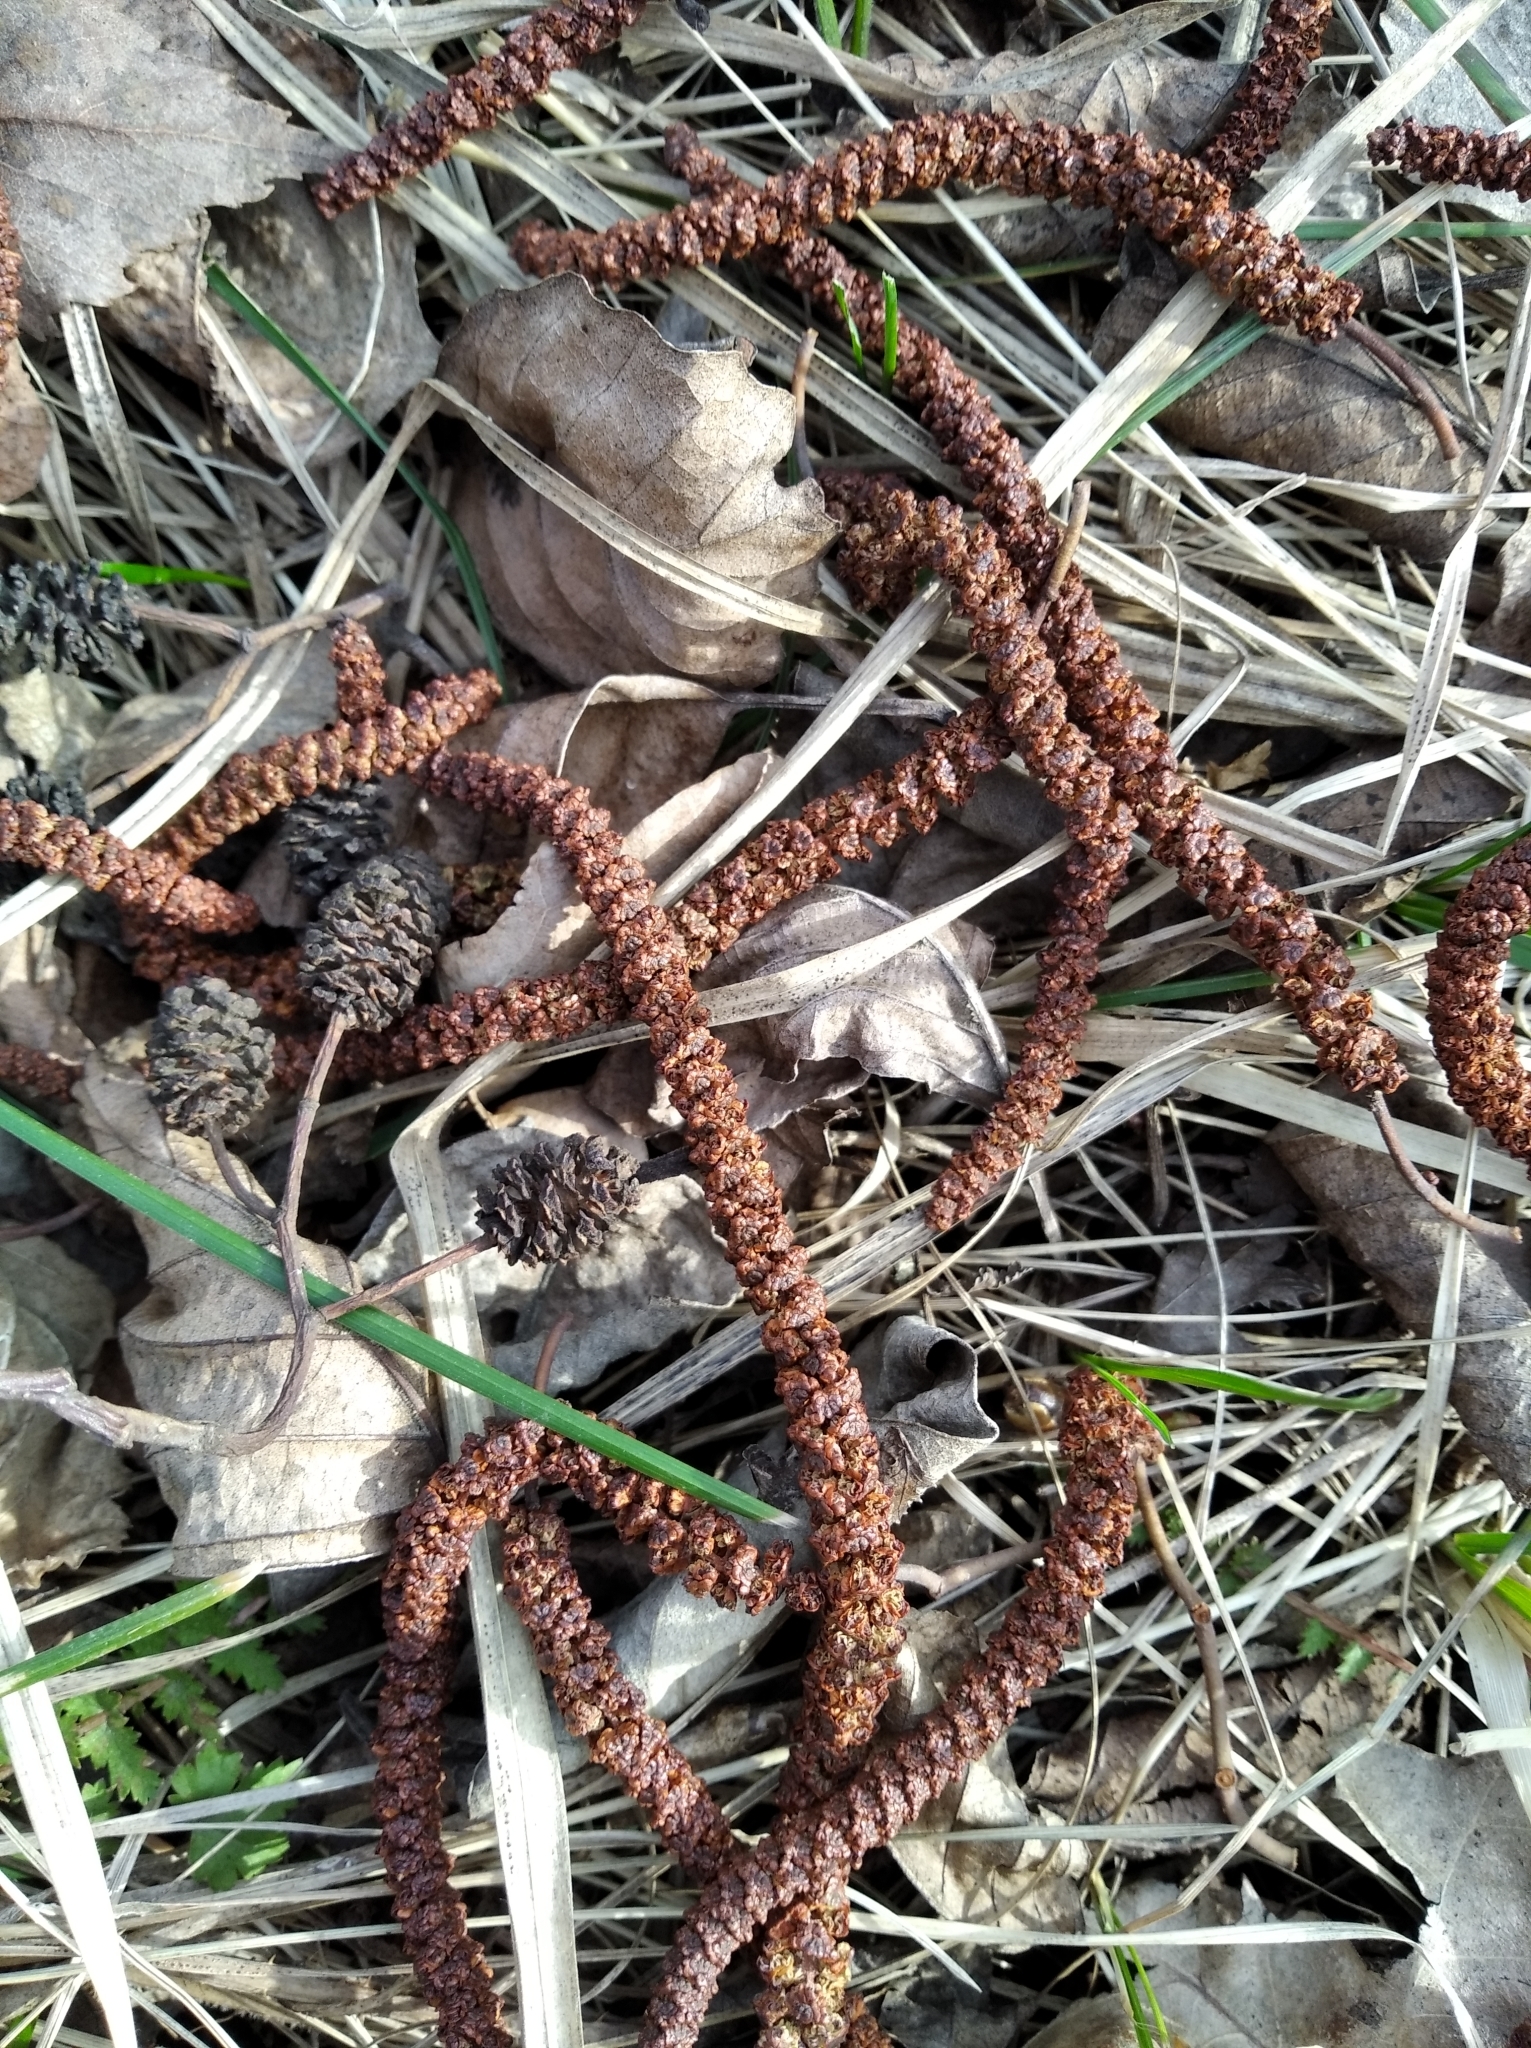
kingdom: Plantae
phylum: Tracheophyta
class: Magnoliopsida
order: Fagales
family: Betulaceae
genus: Alnus
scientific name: Alnus glutinosa
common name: Black alder
